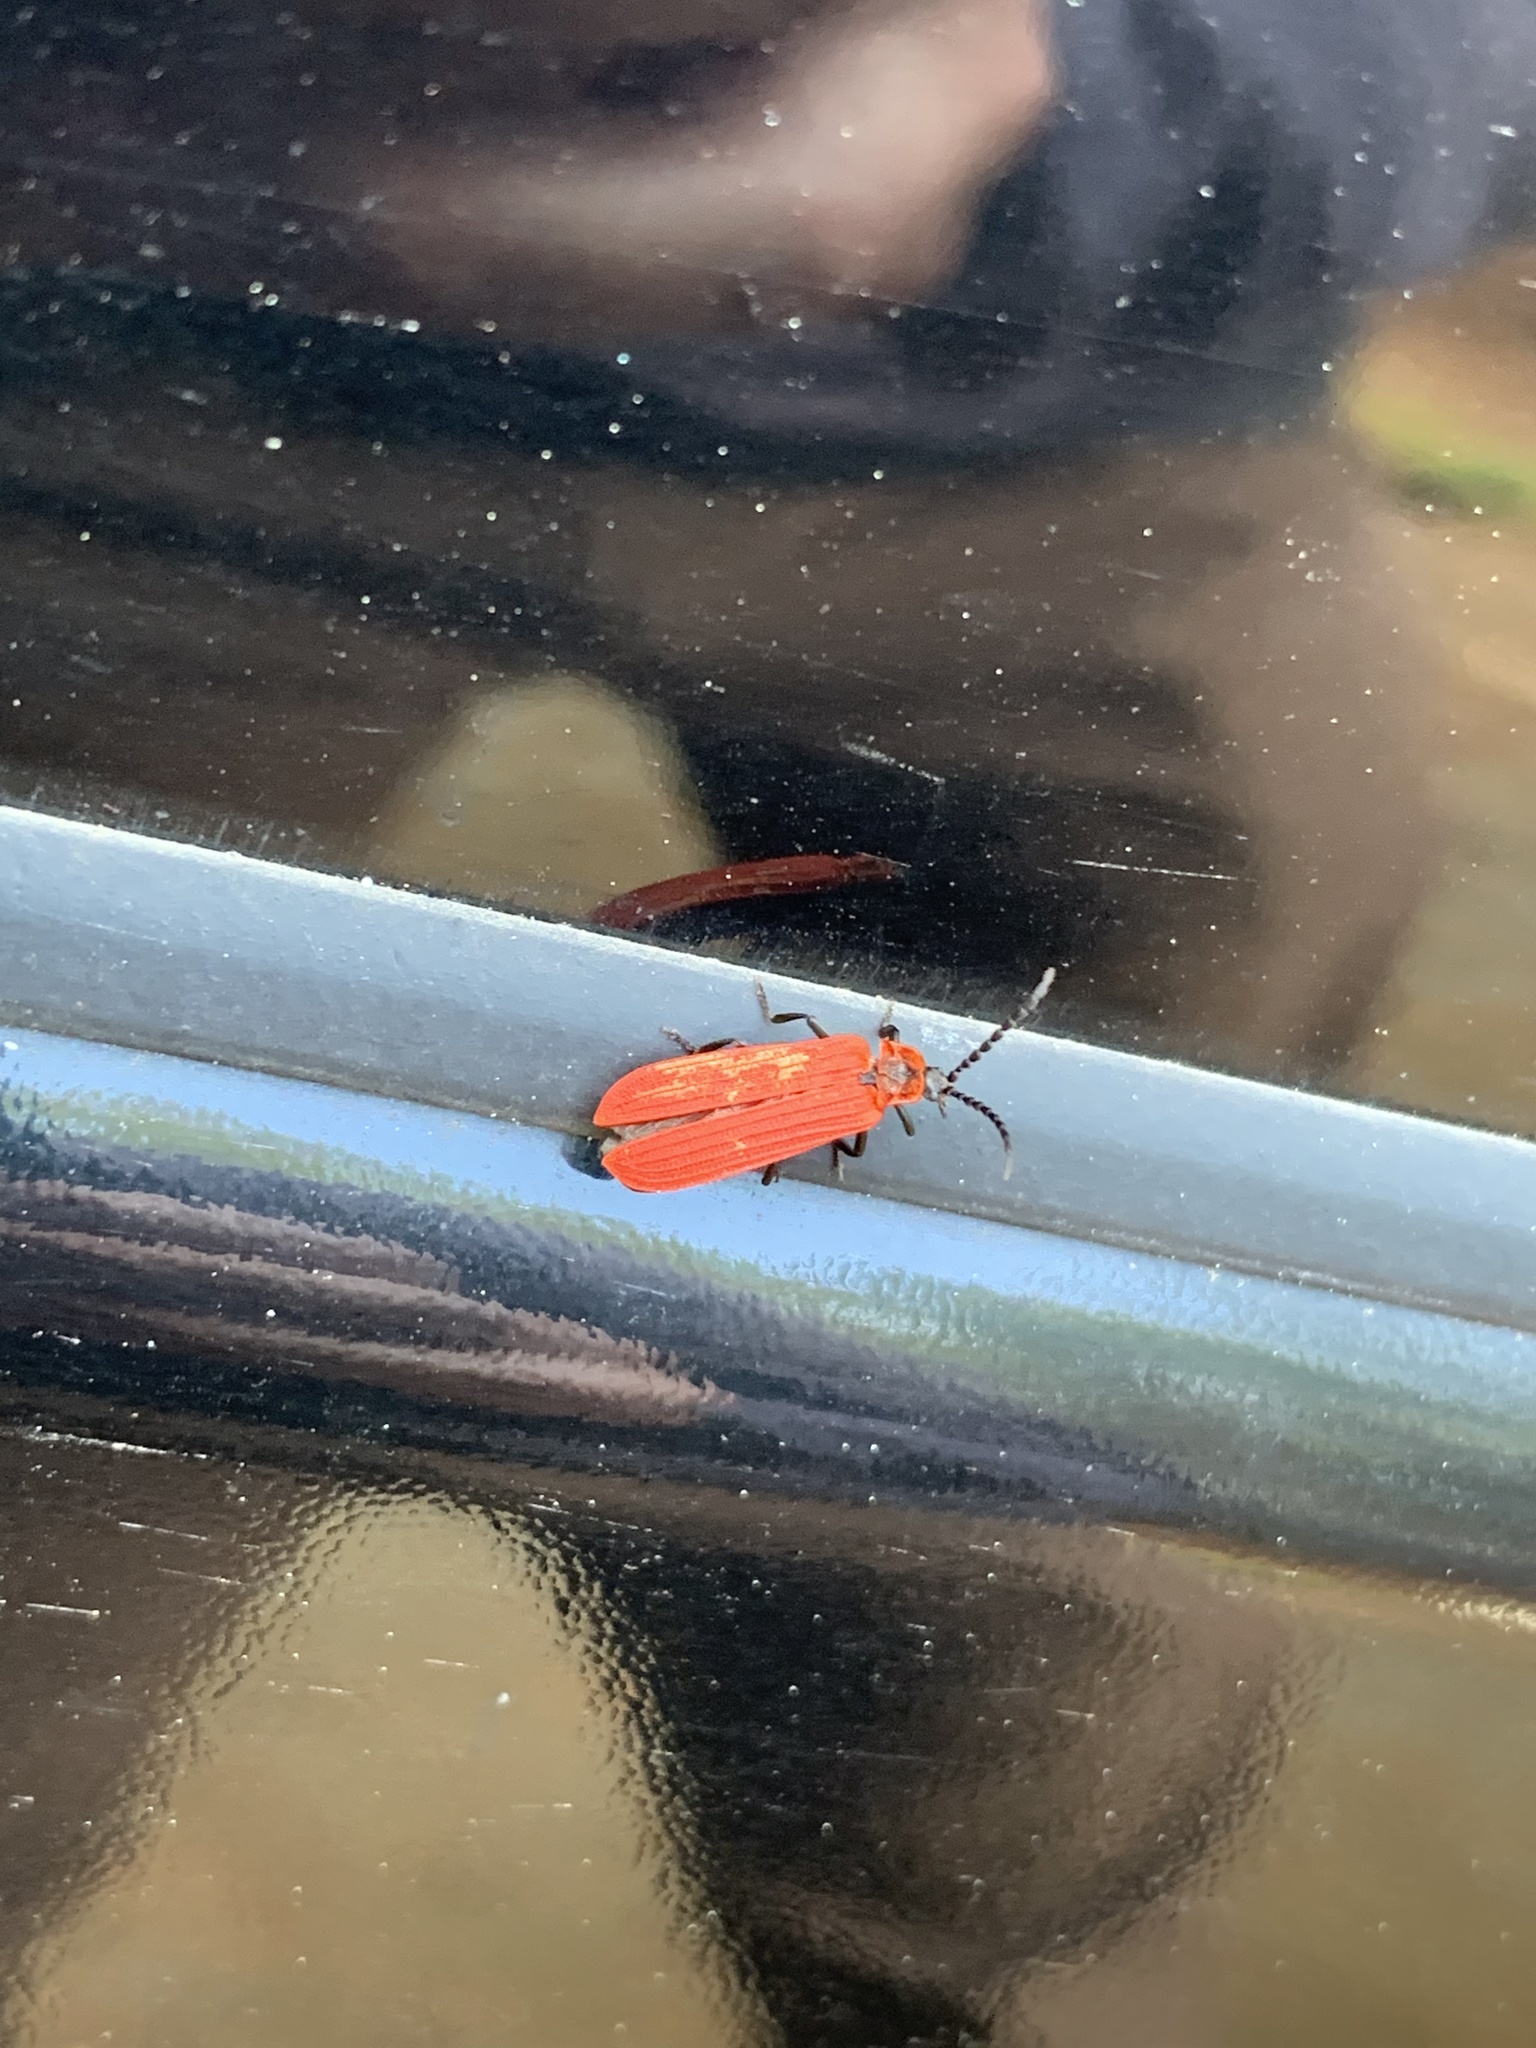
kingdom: Animalia
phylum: Arthropoda
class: Insecta
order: Coleoptera
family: Lycidae
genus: Dictyoptera
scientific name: Dictyoptera aurora
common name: Golden net-winged beetle
